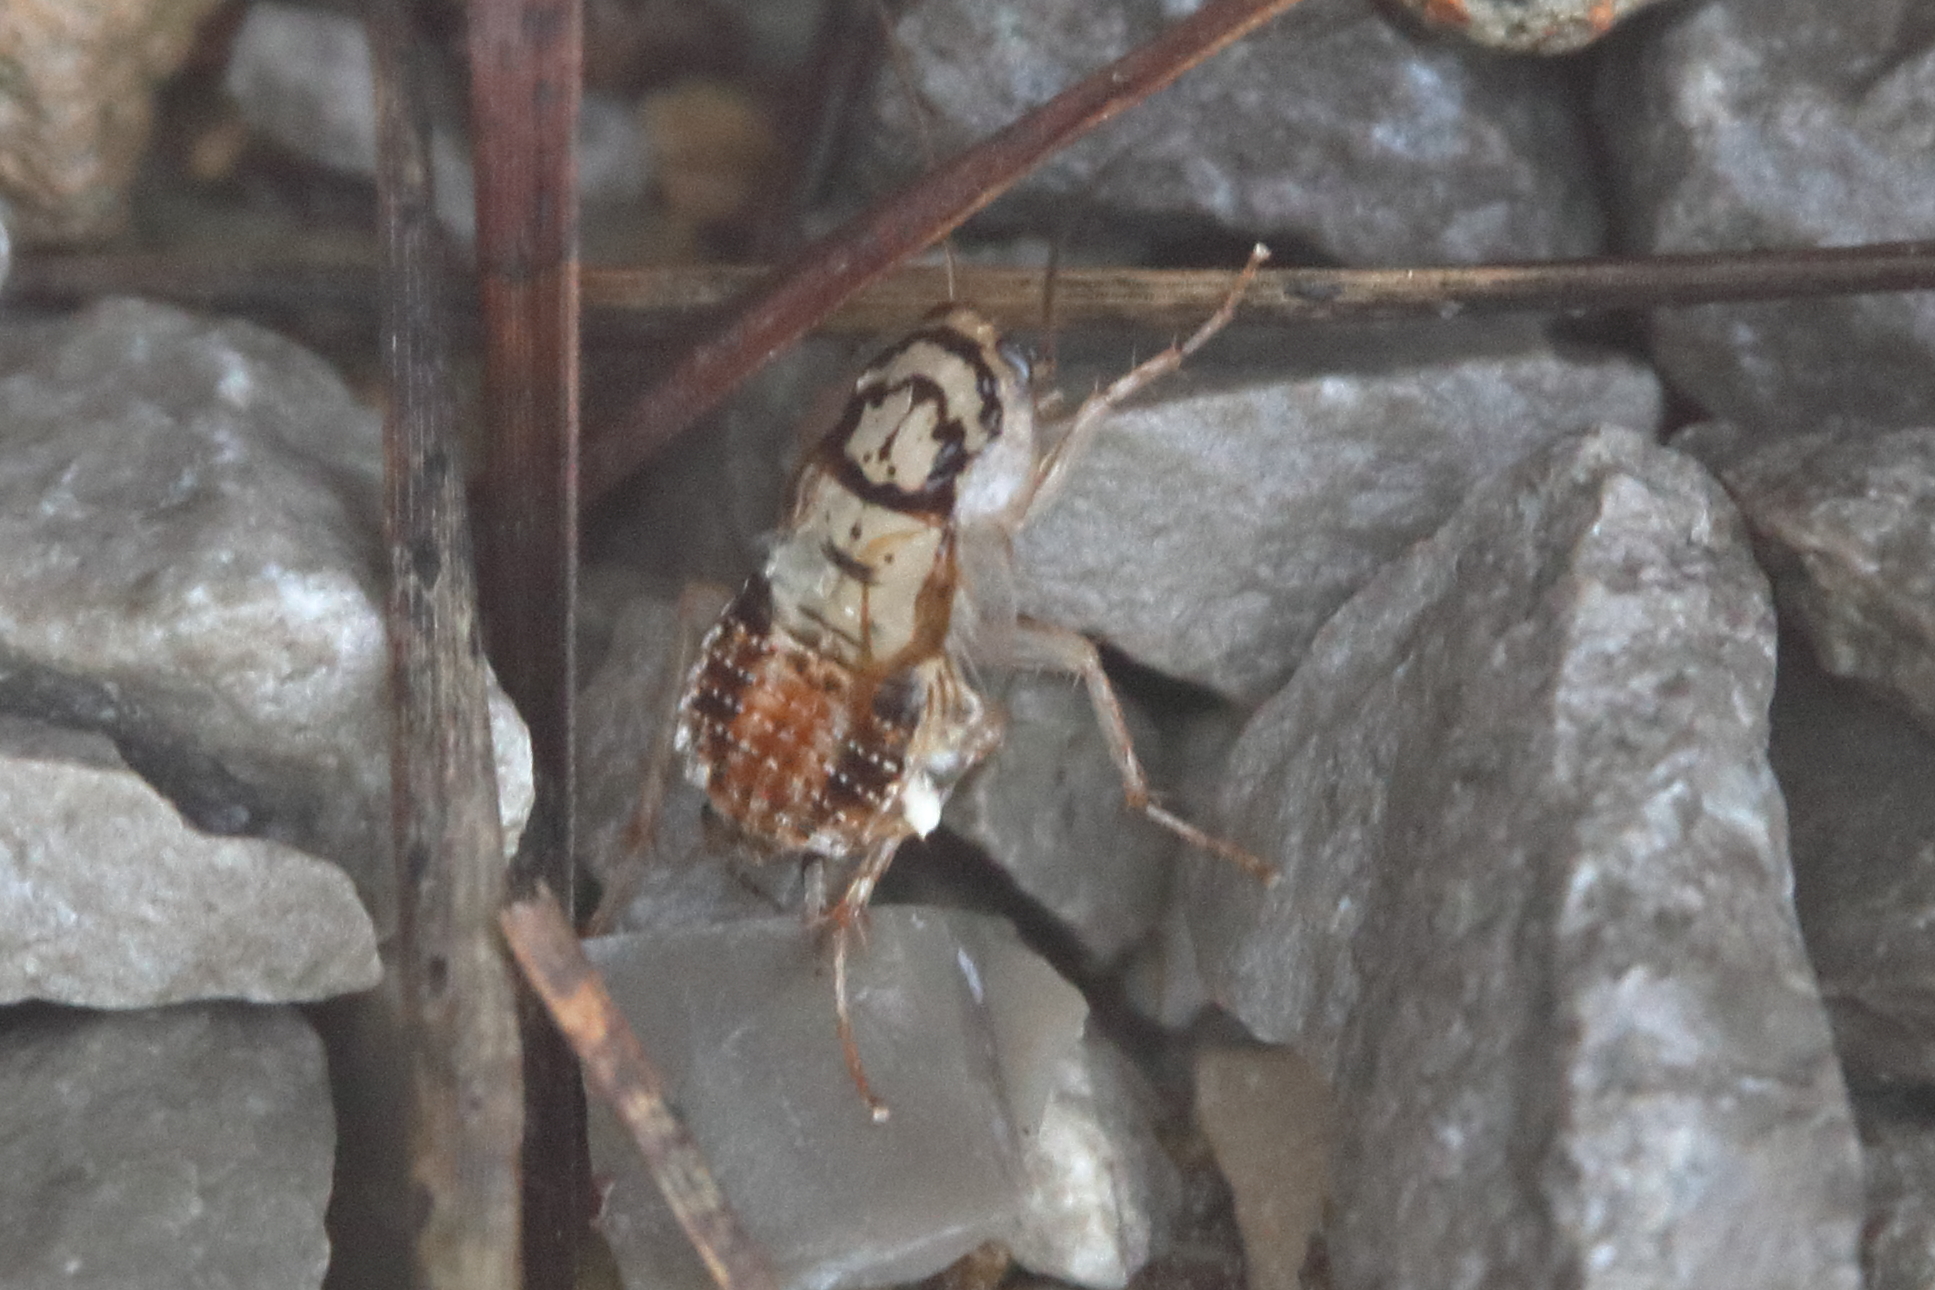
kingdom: Animalia
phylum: Arthropoda
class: Insecta
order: Blattodea
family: Ectobiidae
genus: Aglaopteryx
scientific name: Aglaopteryx gemma
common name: Shortwing gem cockroach
